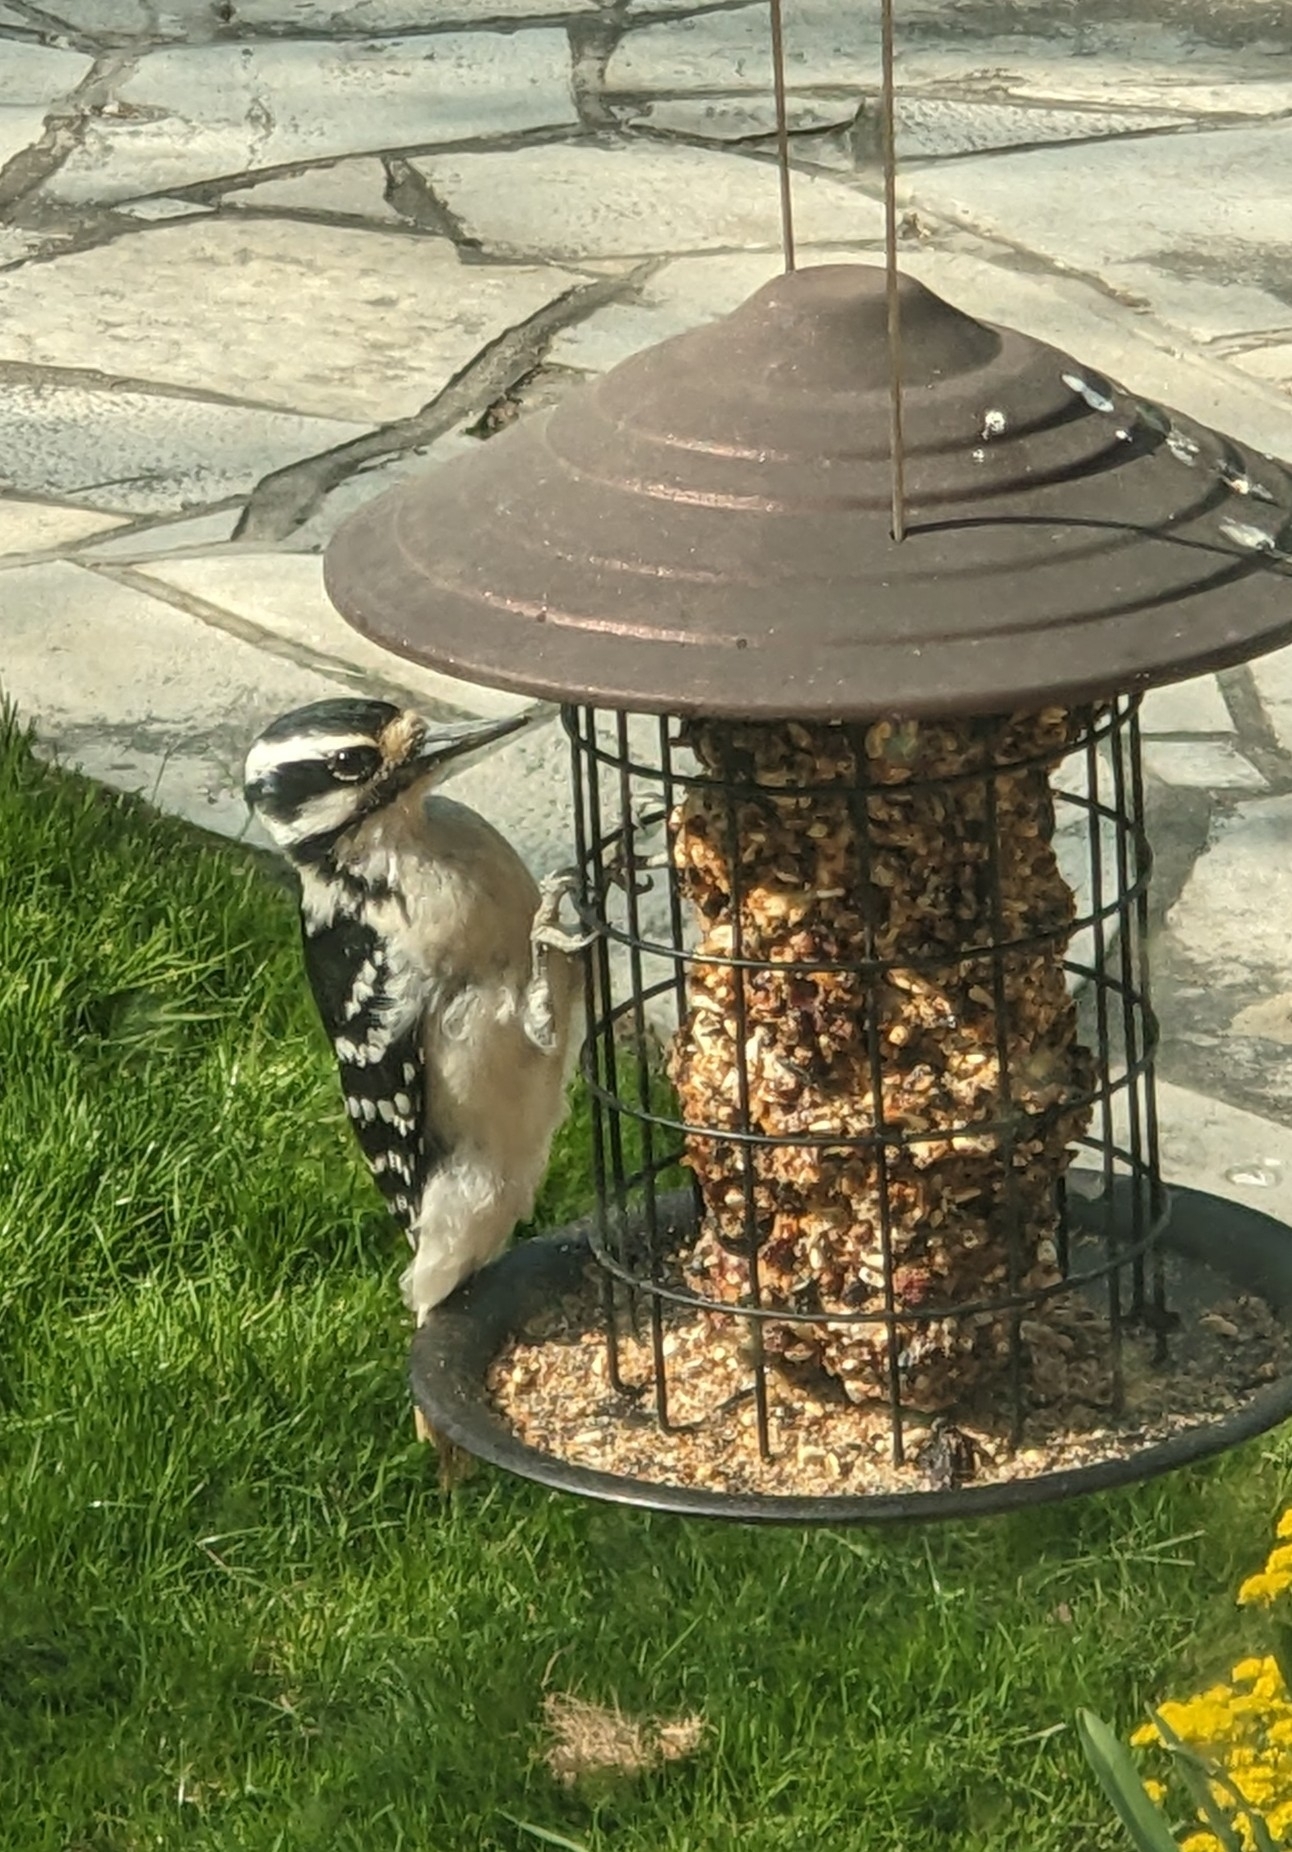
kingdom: Animalia
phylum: Chordata
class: Aves
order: Piciformes
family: Picidae
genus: Leuconotopicus
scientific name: Leuconotopicus villosus
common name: Hairy woodpecker
